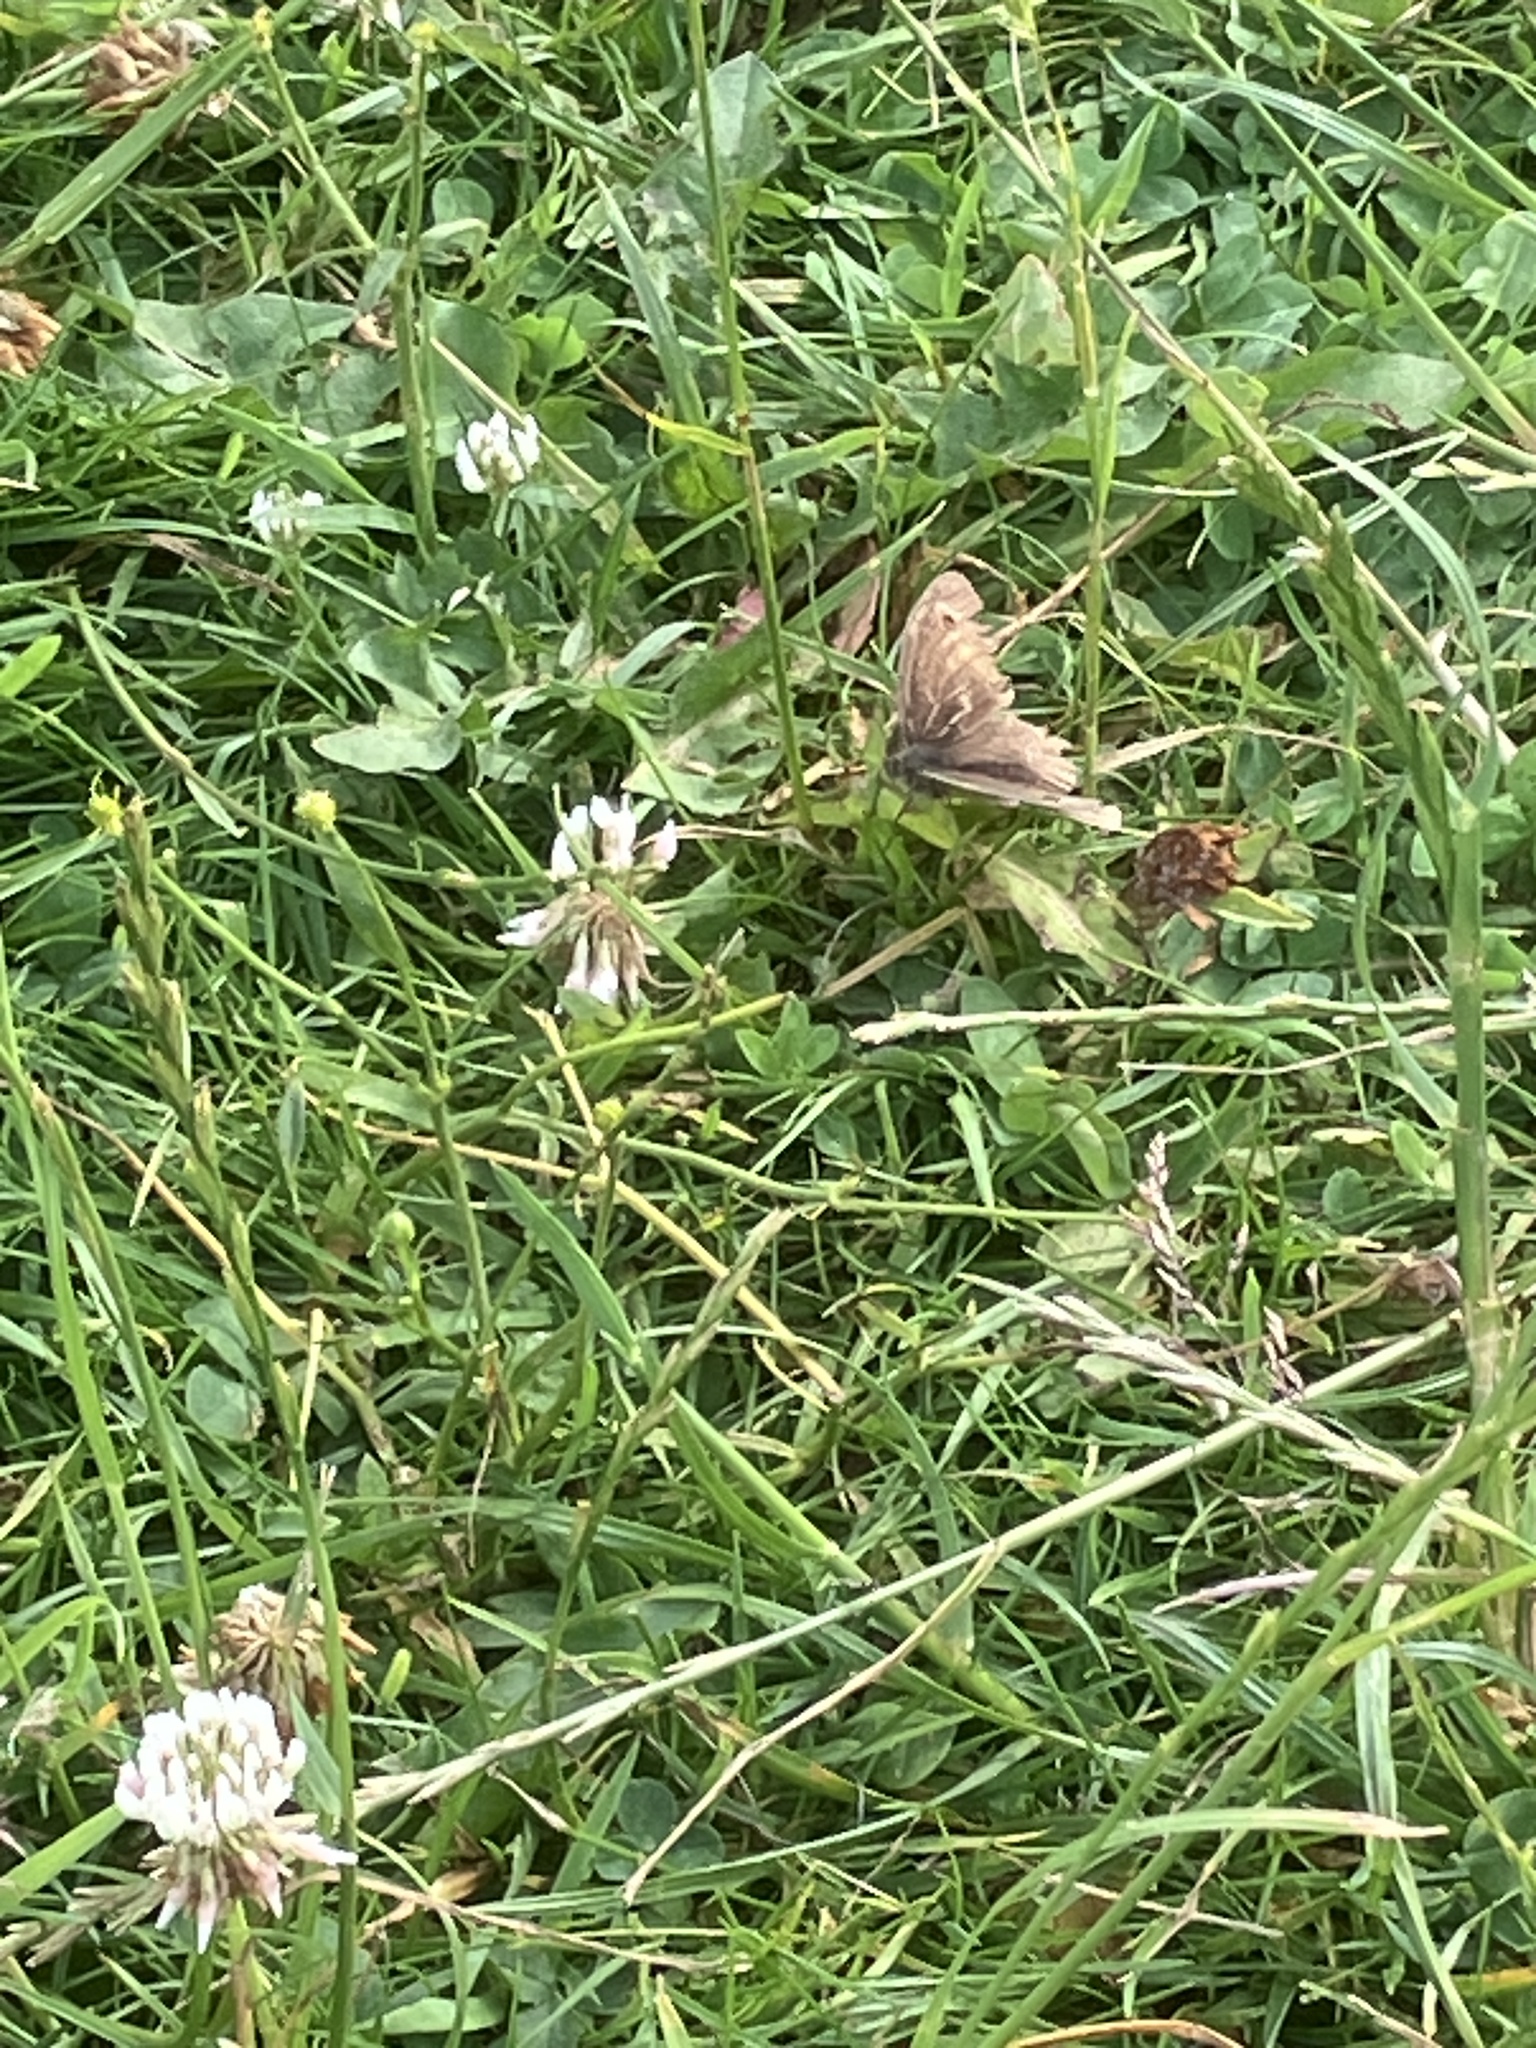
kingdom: Plantae
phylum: Tracheophyta
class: Magnoliopsida
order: Fabales
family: Fabaceae
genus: Trifolium
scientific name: Trifolium repens
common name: White clover
